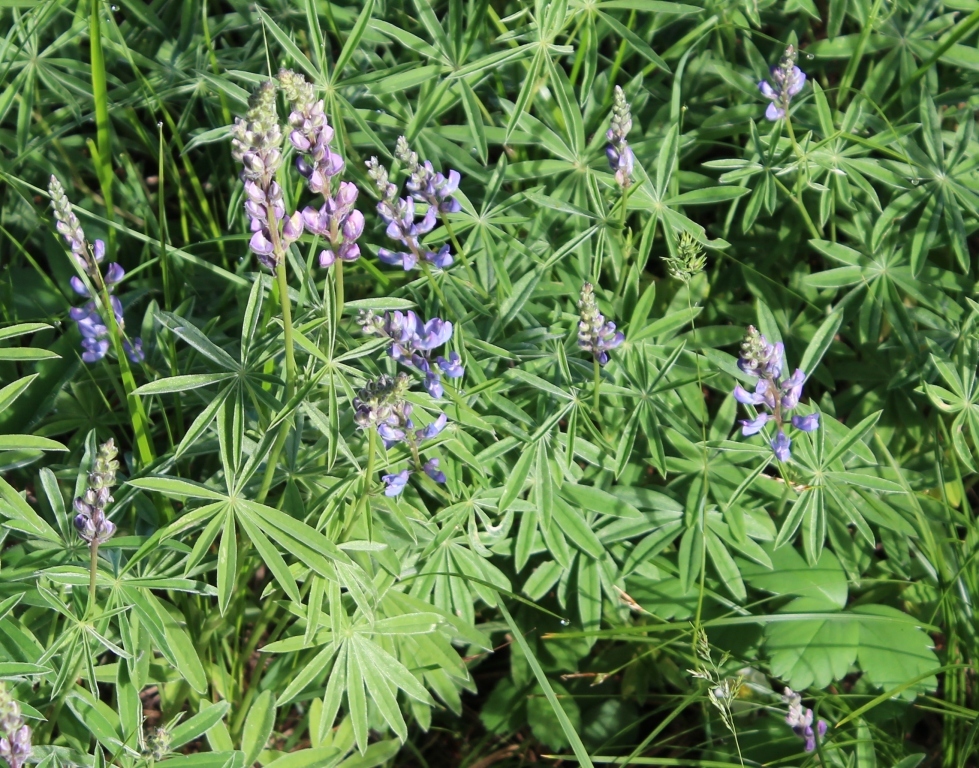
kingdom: Plantae
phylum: Tracheophyta
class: Magnoliopsida
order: Fabales
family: Fabaceae
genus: Lupinus
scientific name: Lupinus latifolius
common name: Broad-leaved lupine
